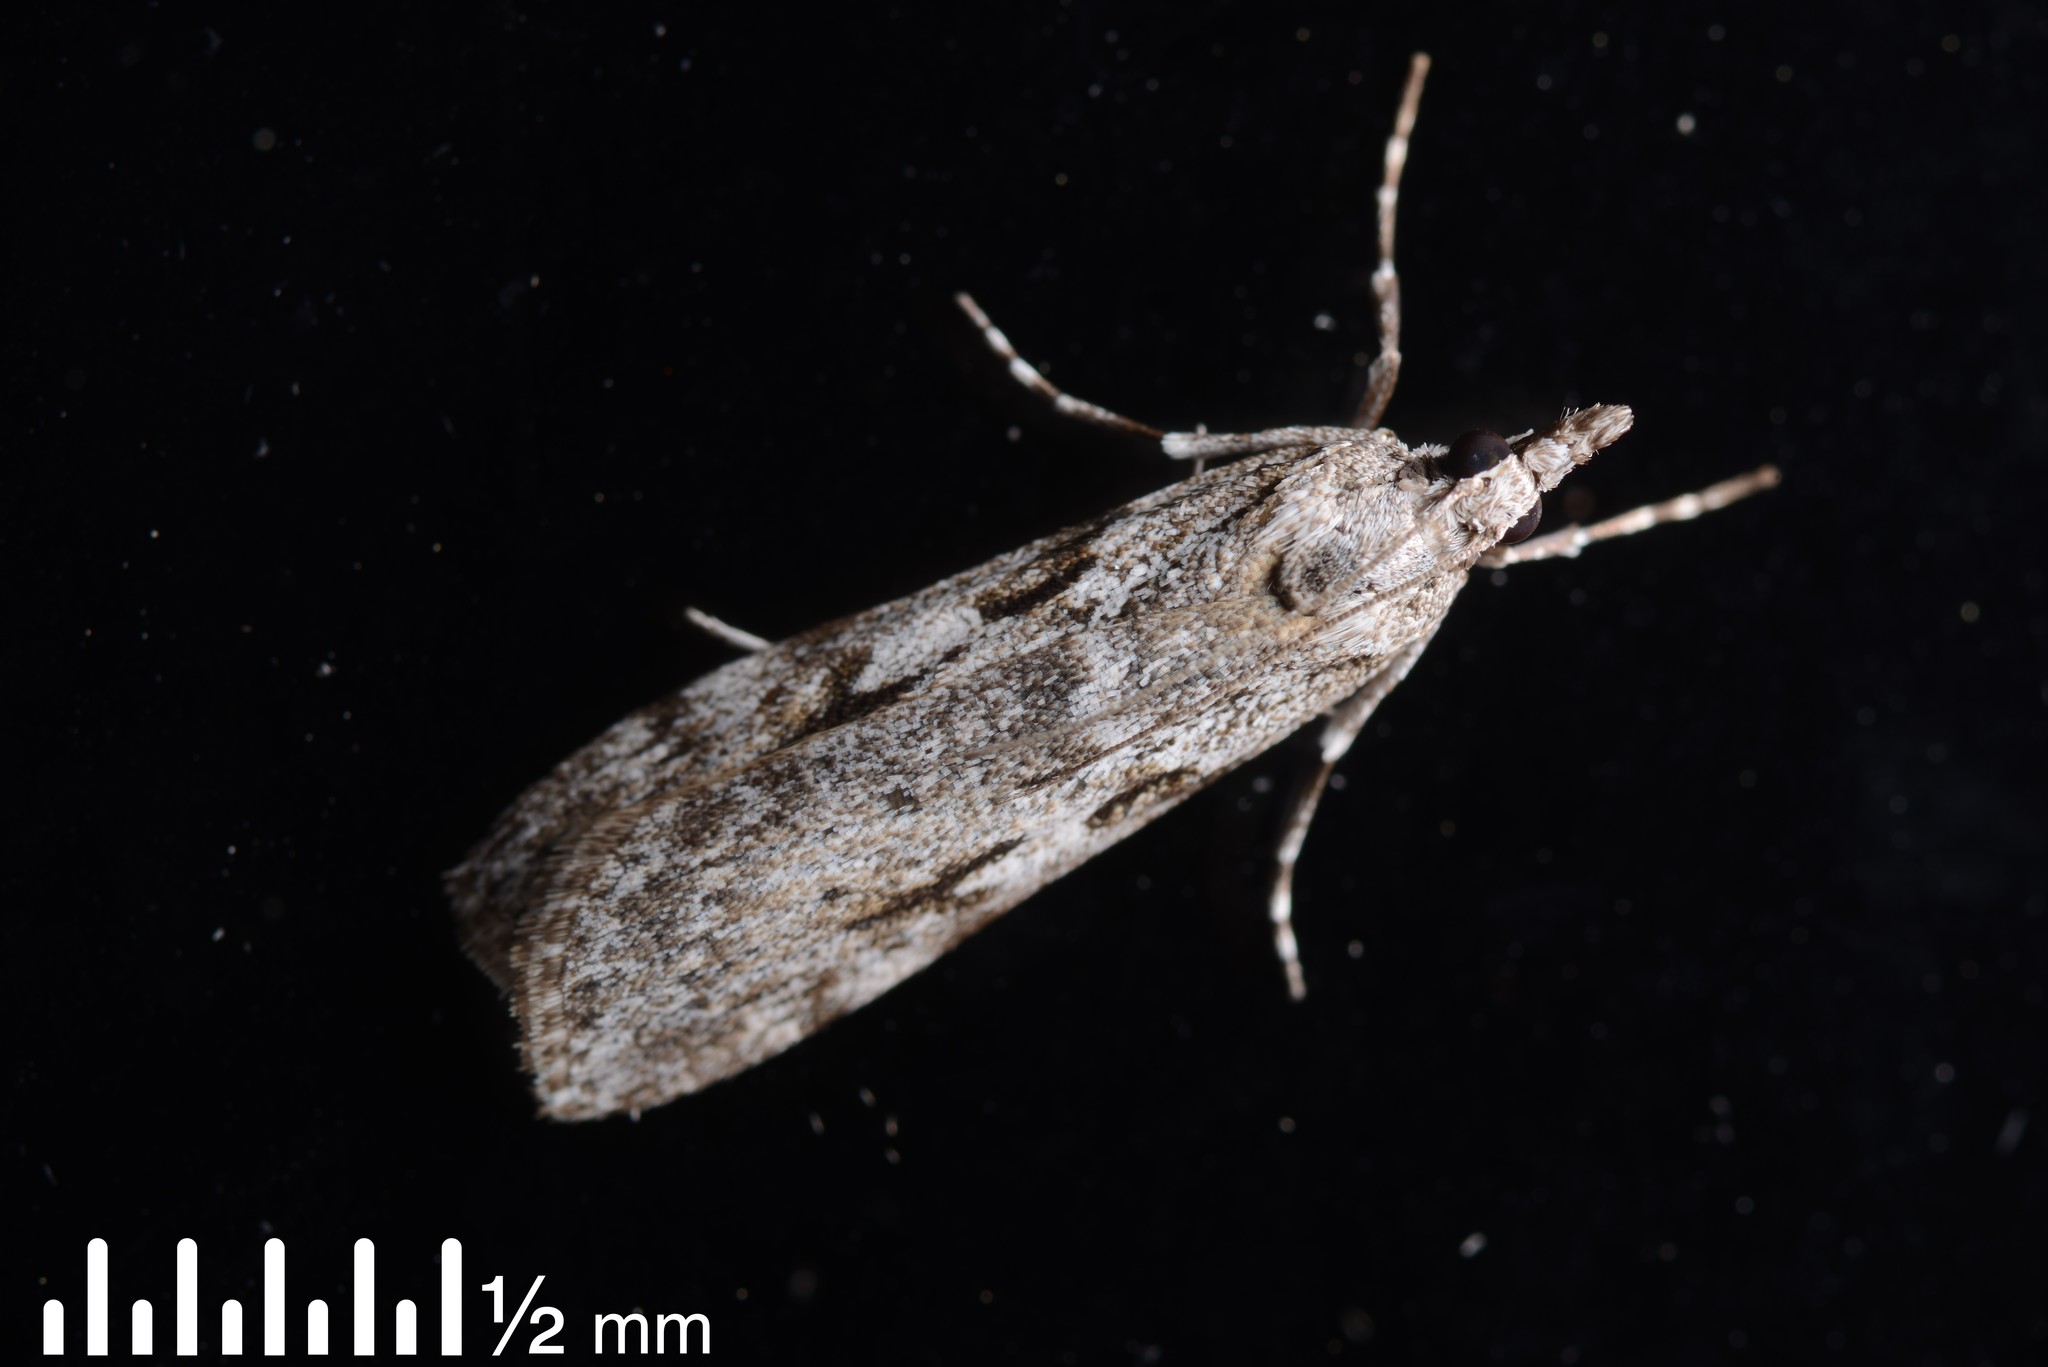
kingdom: Animalia
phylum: Arthropoda
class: Insecta
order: Lepidoptera
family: Crambidae
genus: Scoparia
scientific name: Scoparia halopis
